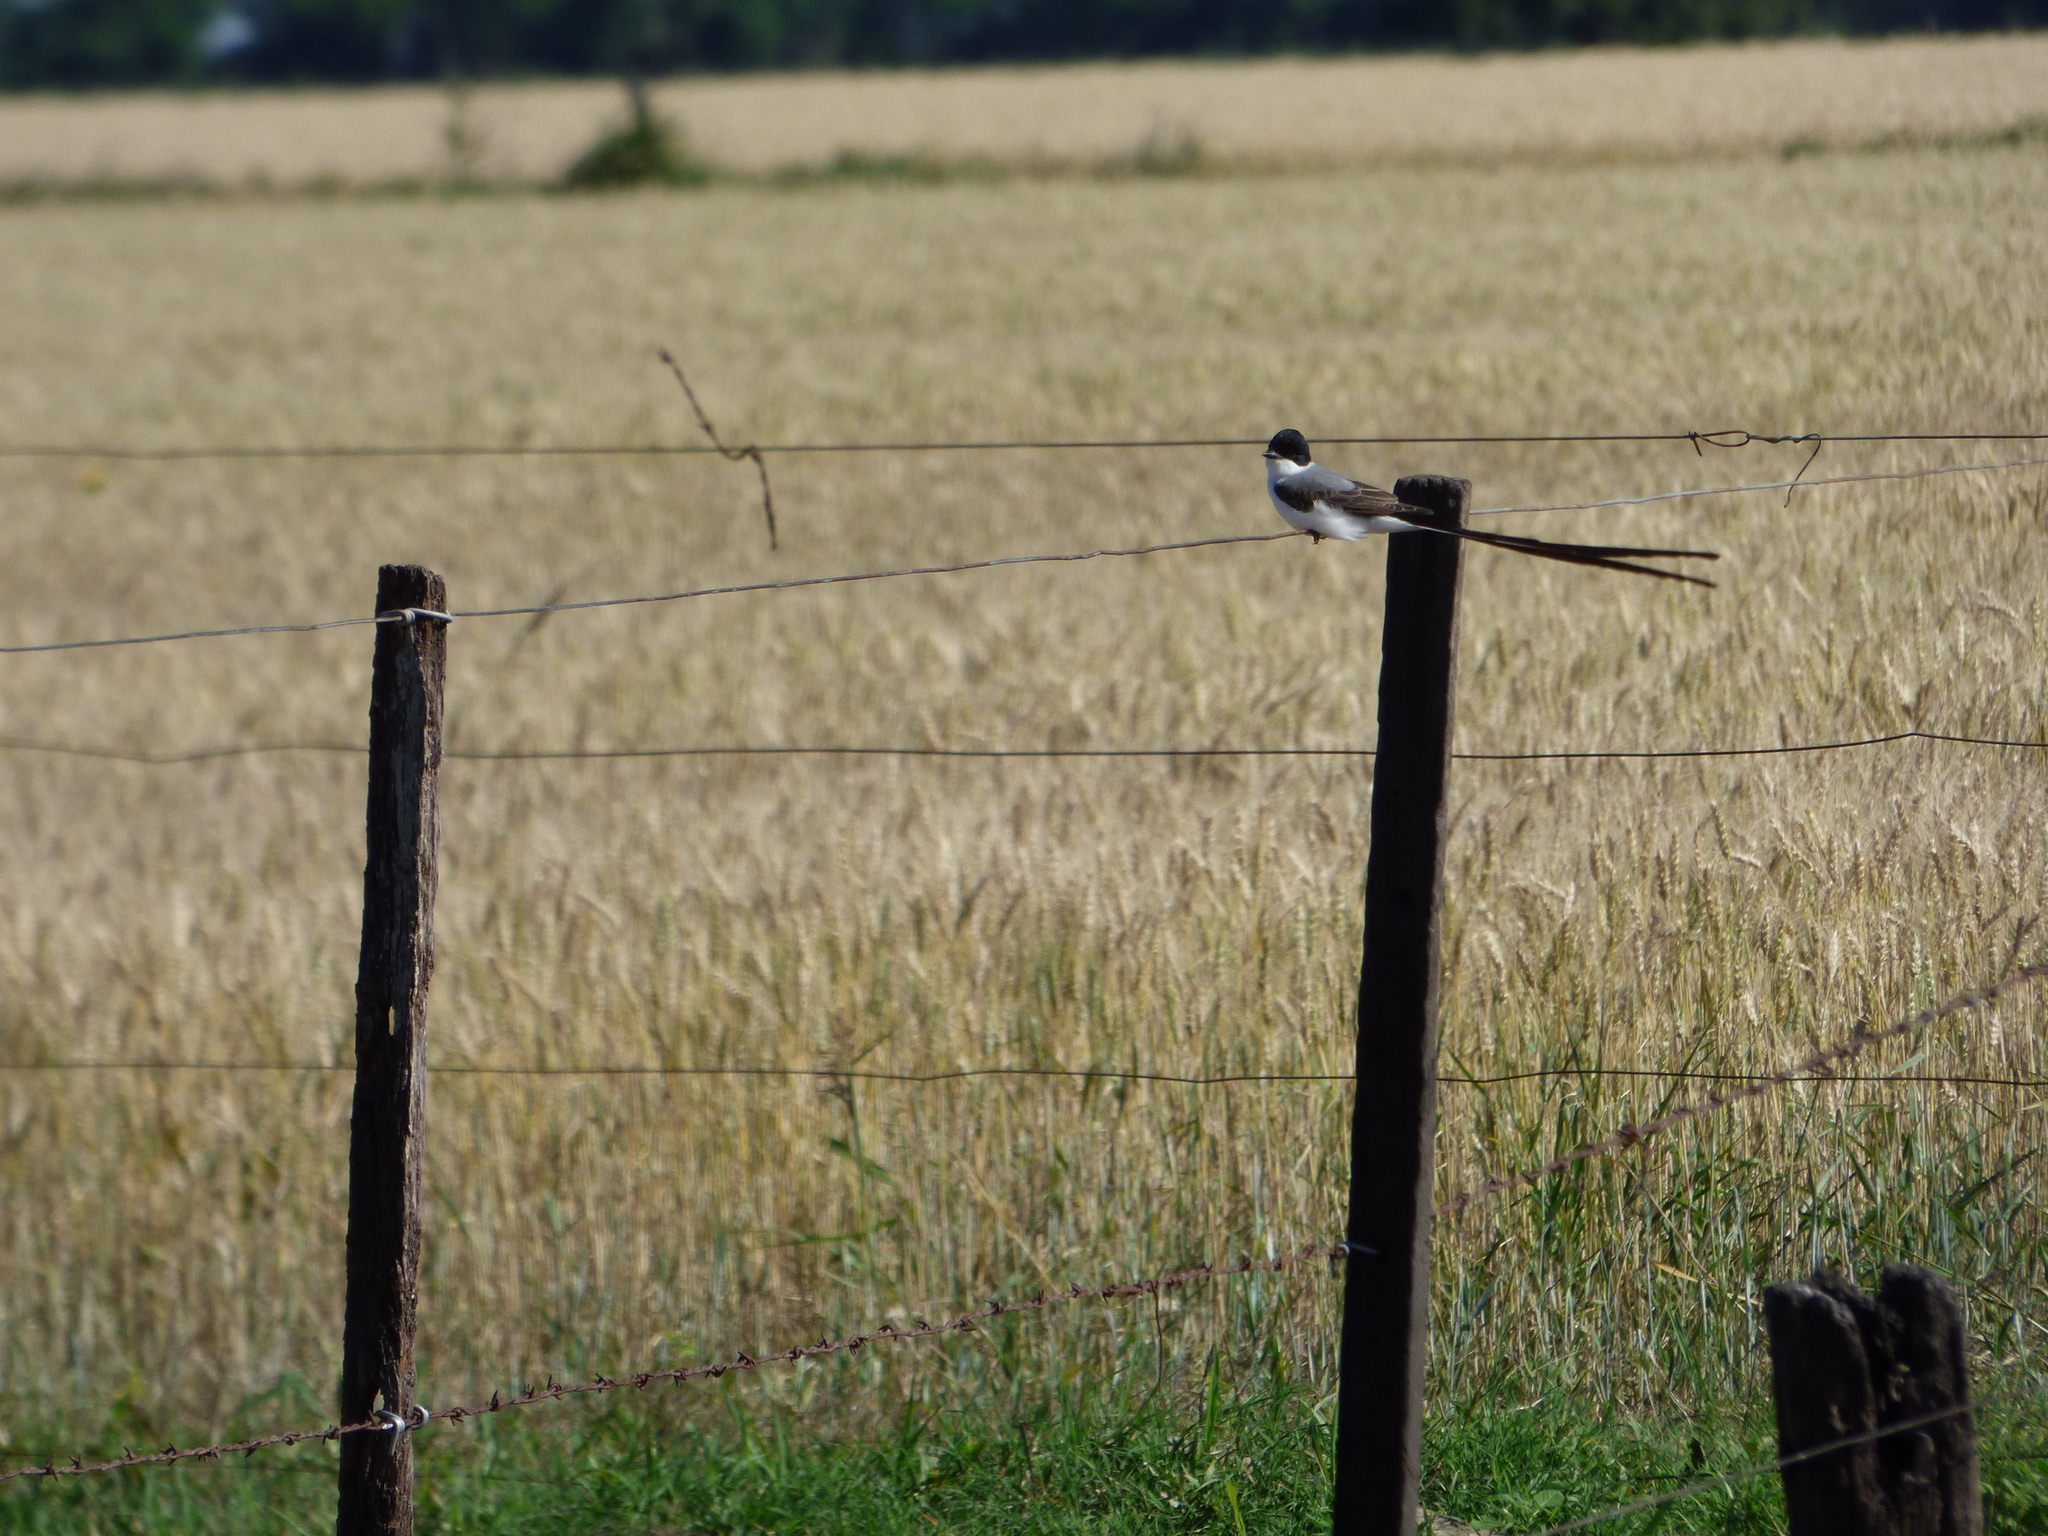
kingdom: Animalia
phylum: Chordata
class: Aves
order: Passeriformes
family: Tyrannidae
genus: Tyrannus
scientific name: Tyrannus savana
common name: Fork-tailed flycatcher
